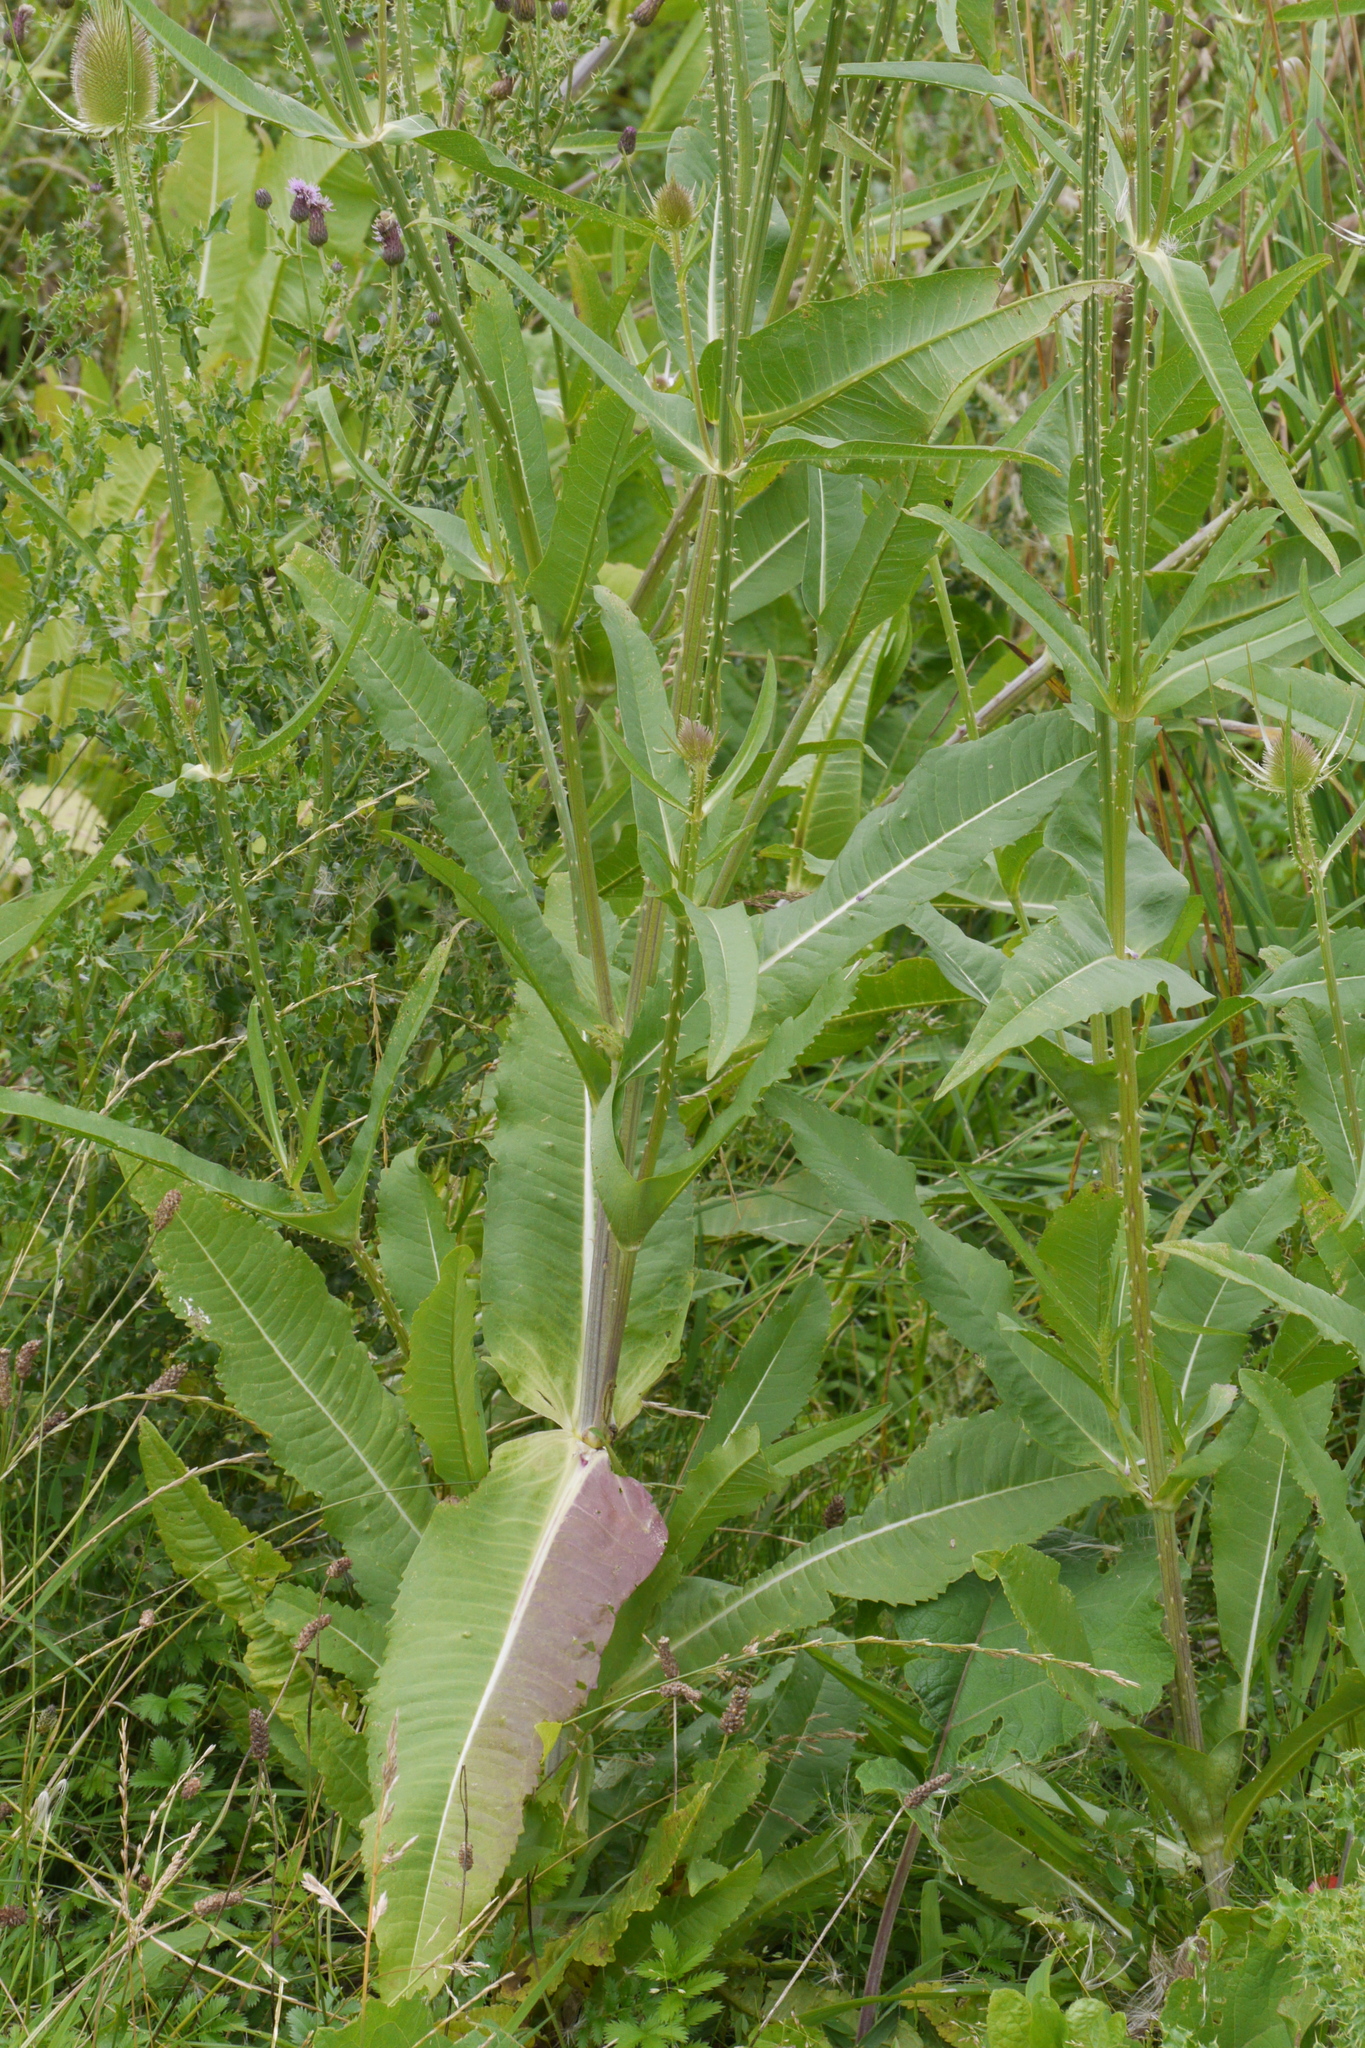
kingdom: Plantae
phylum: Tracheophyta
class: Magnoliopsida
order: Dipsacales
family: Caprifoliaceae
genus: Dipsacus
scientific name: Dipsacus fullonum
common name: Teasel
